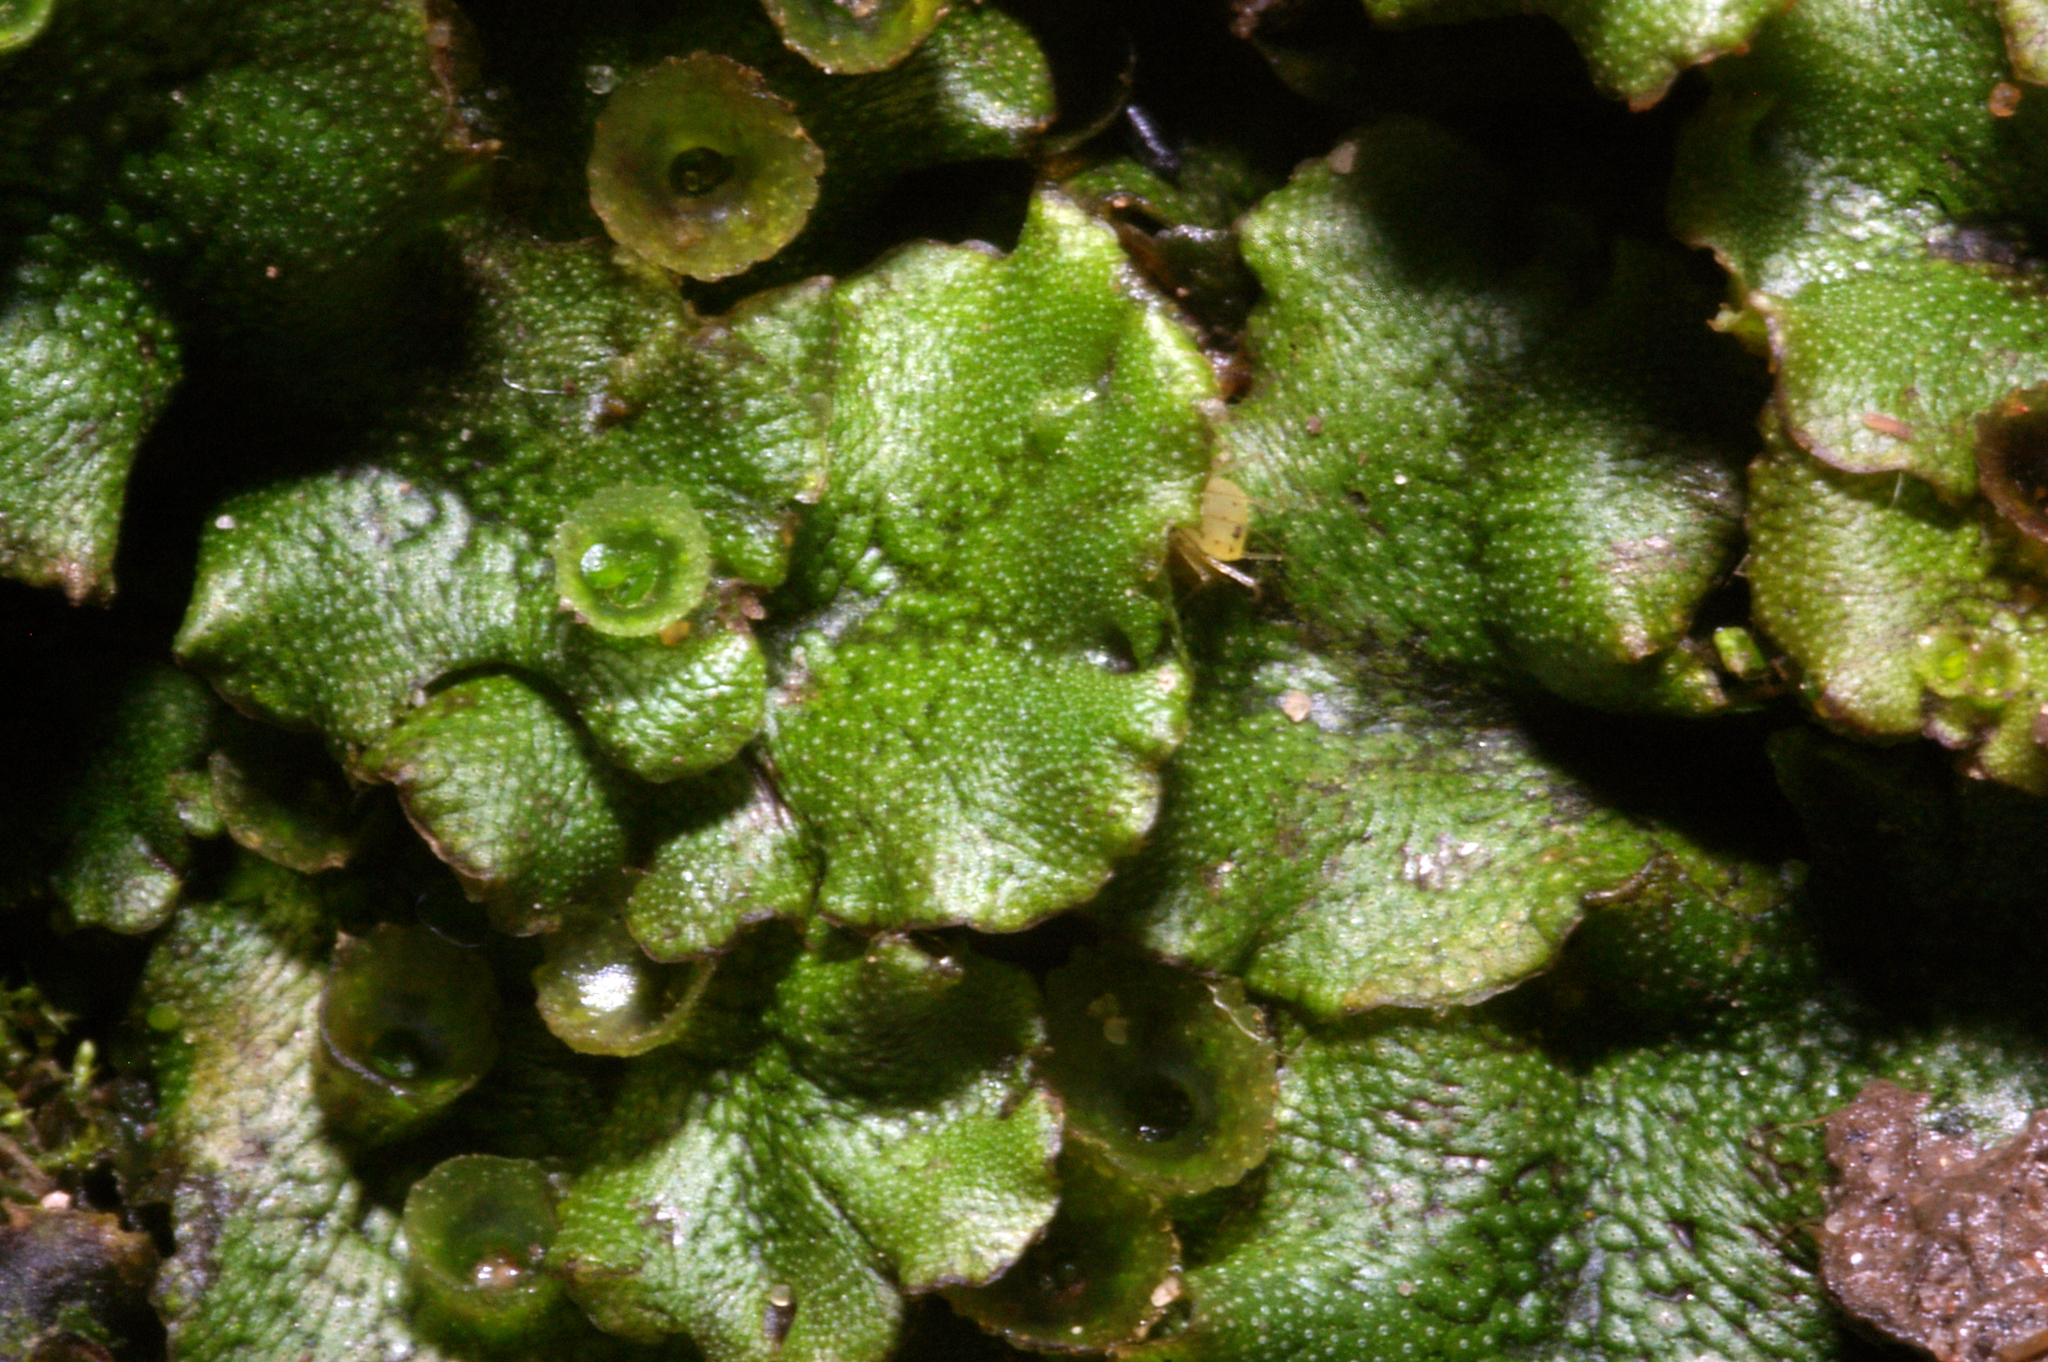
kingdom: Plantae
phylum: Marchantiophyta
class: Marchantiopsida
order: Marchantiales
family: Marchantiaceae
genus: Marchantia
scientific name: Marchantia polymorpha
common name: Common liverwort
